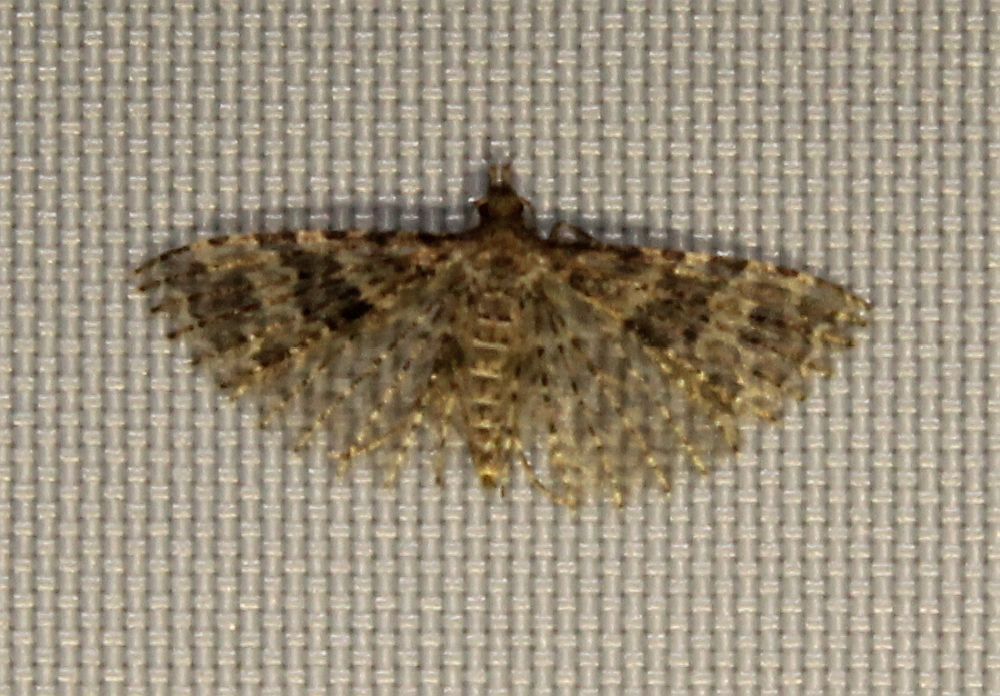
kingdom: Animalia
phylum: Arthropoda
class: Insecta
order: Lepidoptera
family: Alucitidae
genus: Alucita
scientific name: Alucita hexadactyla
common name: Twenty-plume moth
